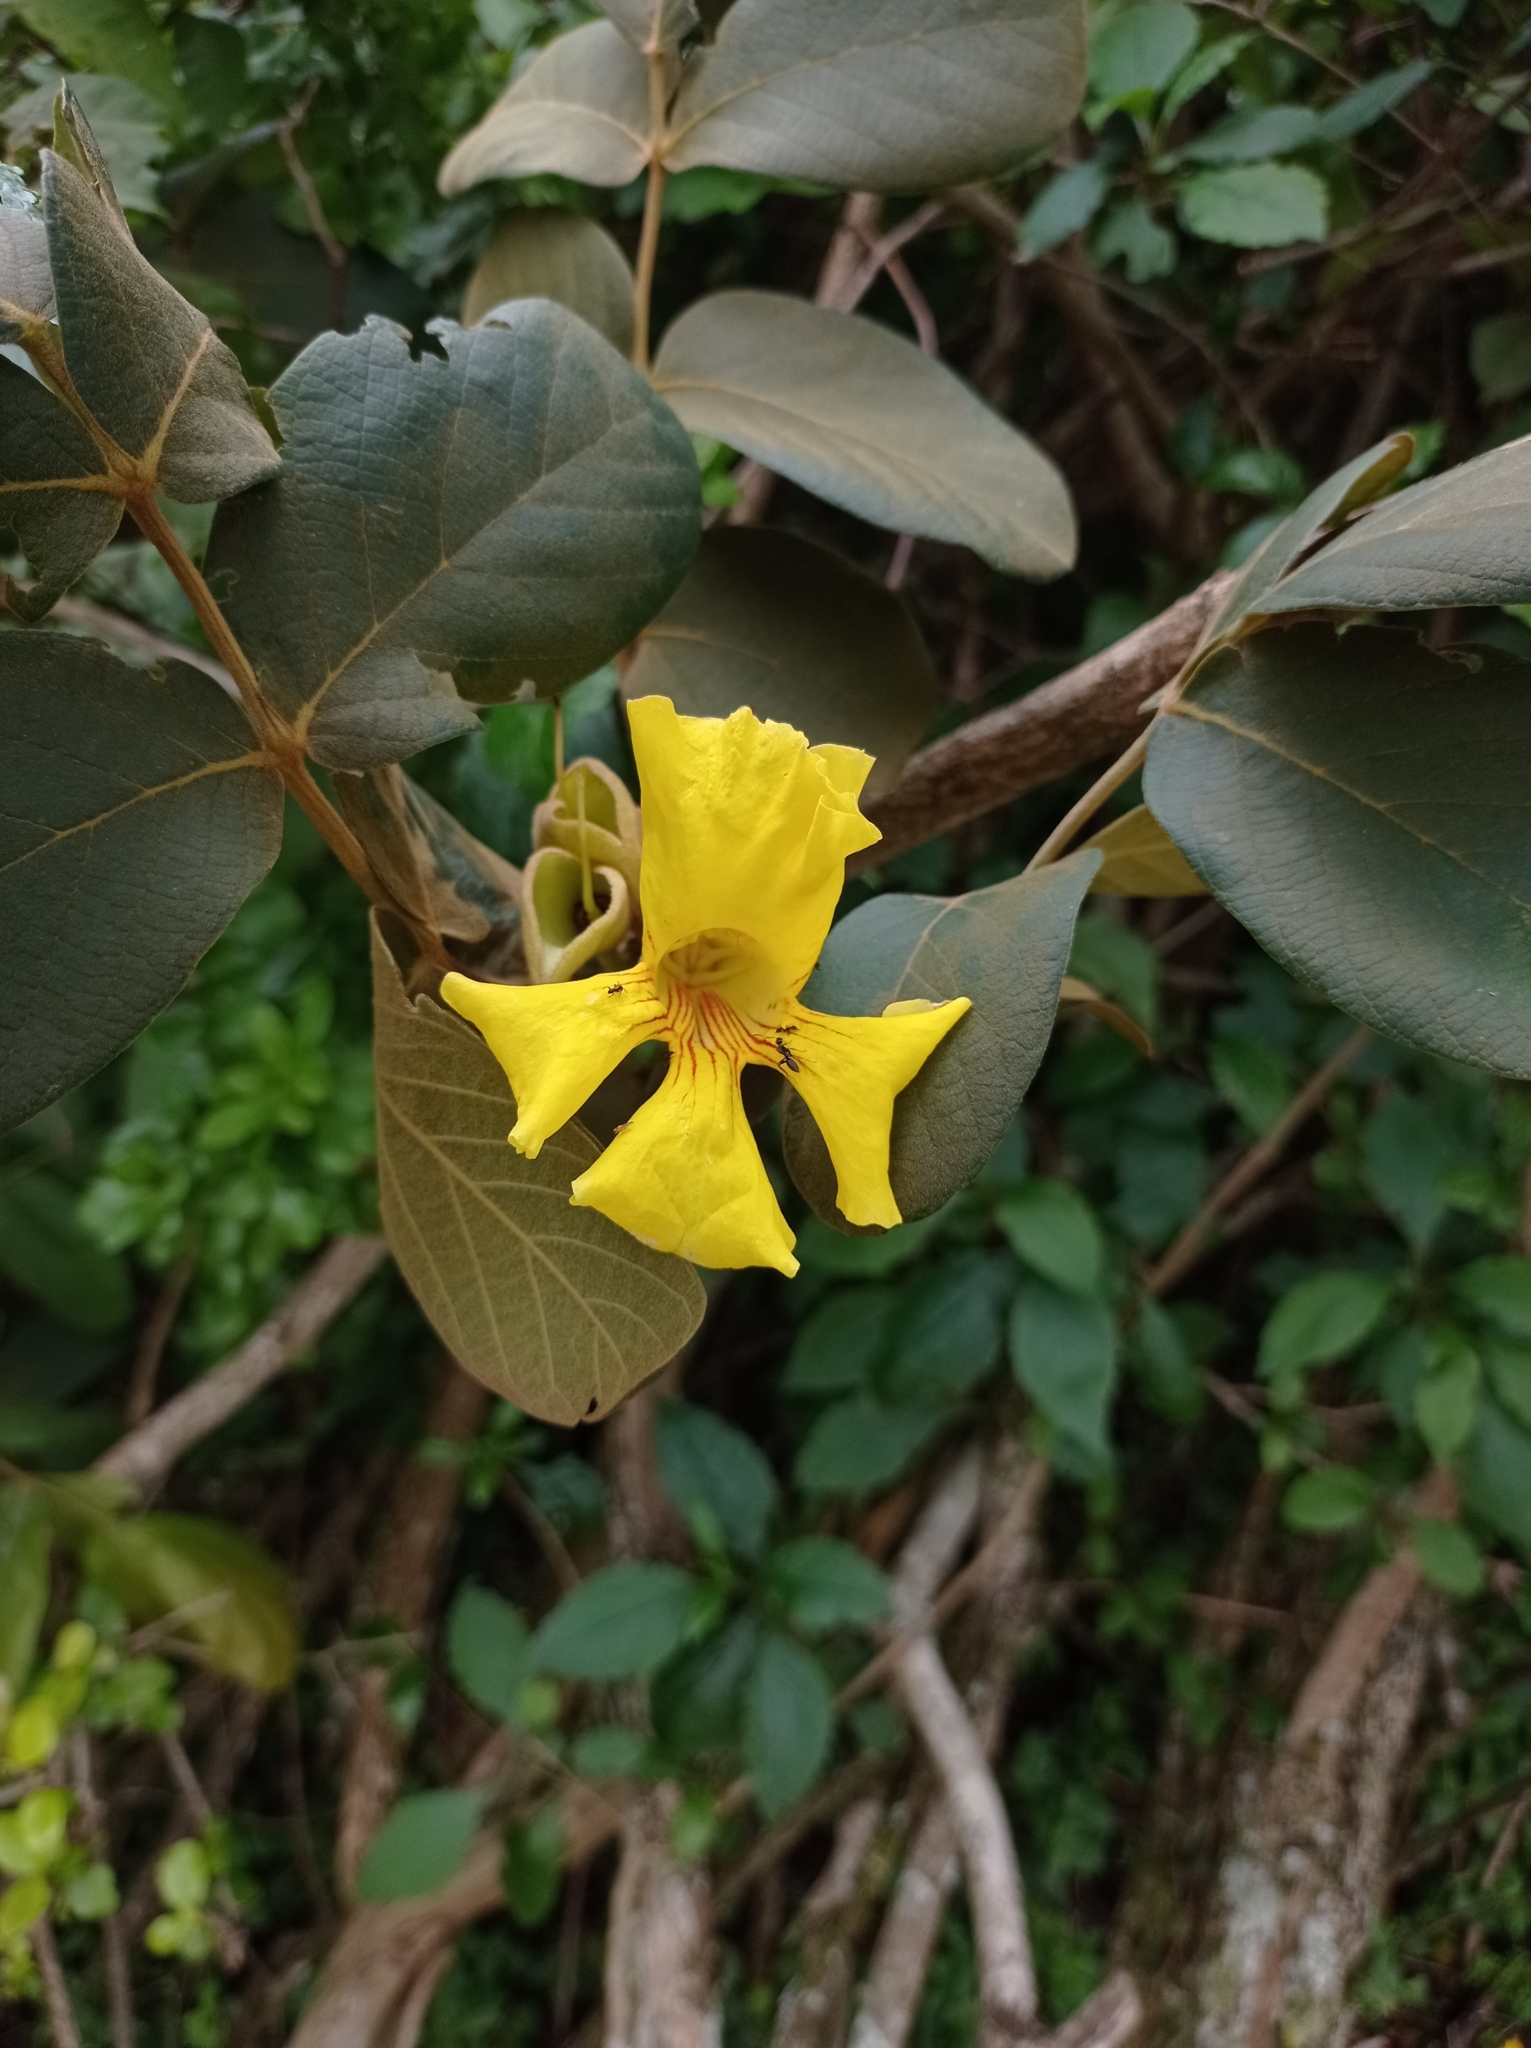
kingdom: Plantae
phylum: Tracheophyta
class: Magnoliopsida
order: Lamiales
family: Bignoniaceae
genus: Markhamia
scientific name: Markhamia obtusifolia
